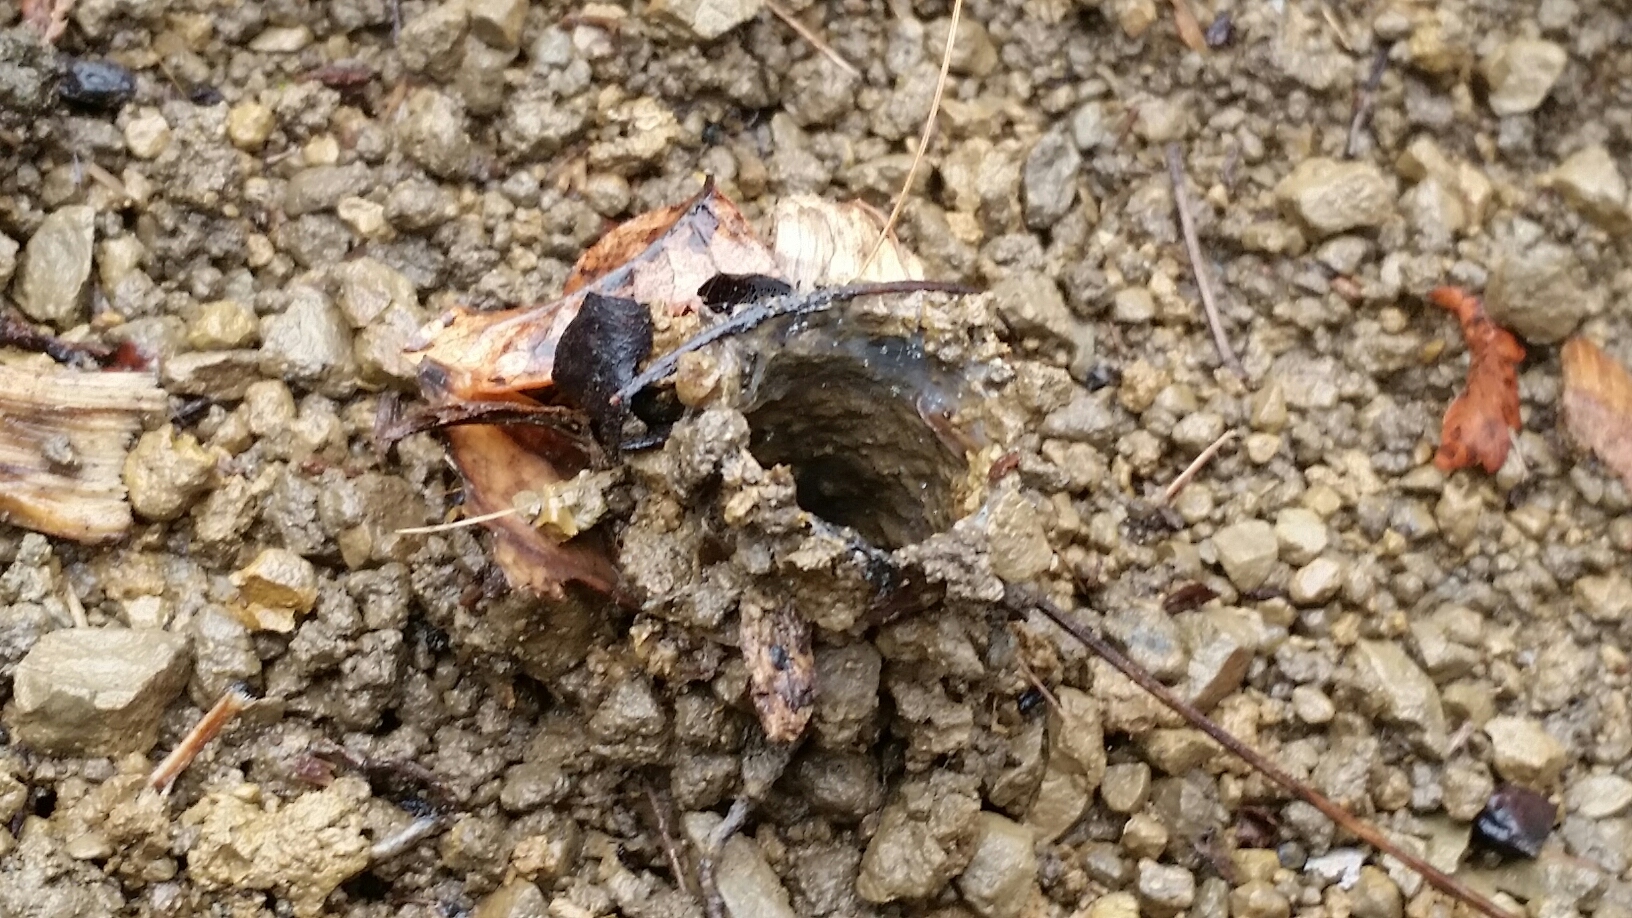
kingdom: Animalia
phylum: Arthropoda
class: Arachnida
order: Araneae
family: Antrodiaetidae
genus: Atypoides
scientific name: Atypoides riversi
